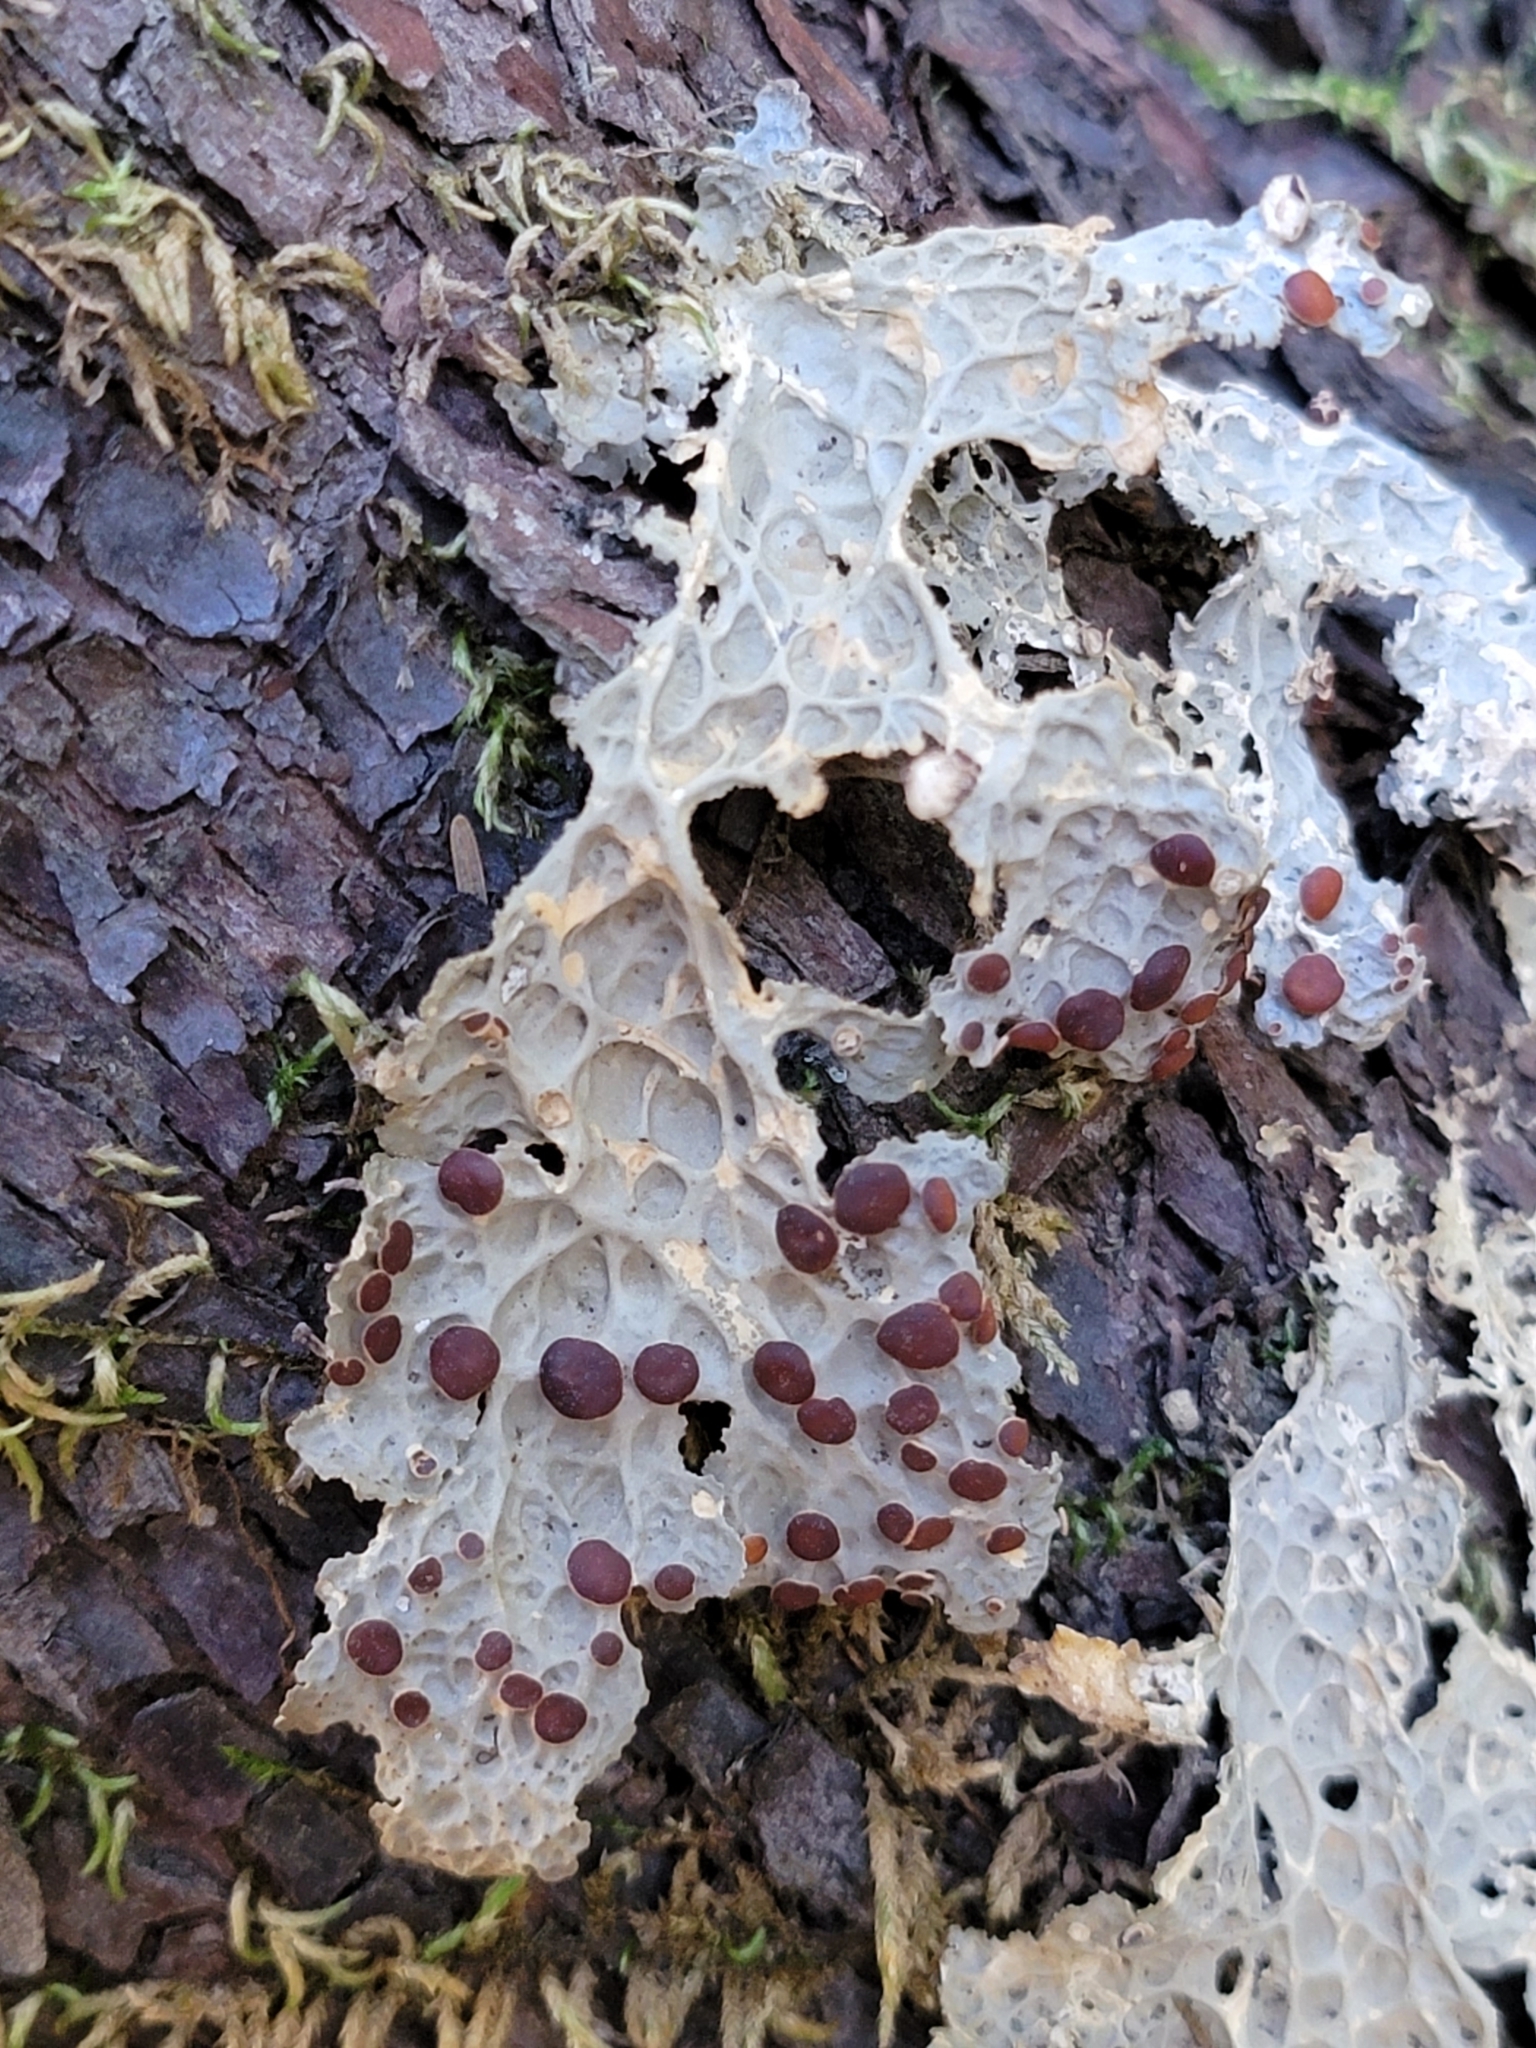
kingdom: Fungi
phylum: Ascomycota
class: Lecanoromycetes
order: Peltigerales
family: Lobariaceae
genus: Lobaria
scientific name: Lobaria anthraspis
